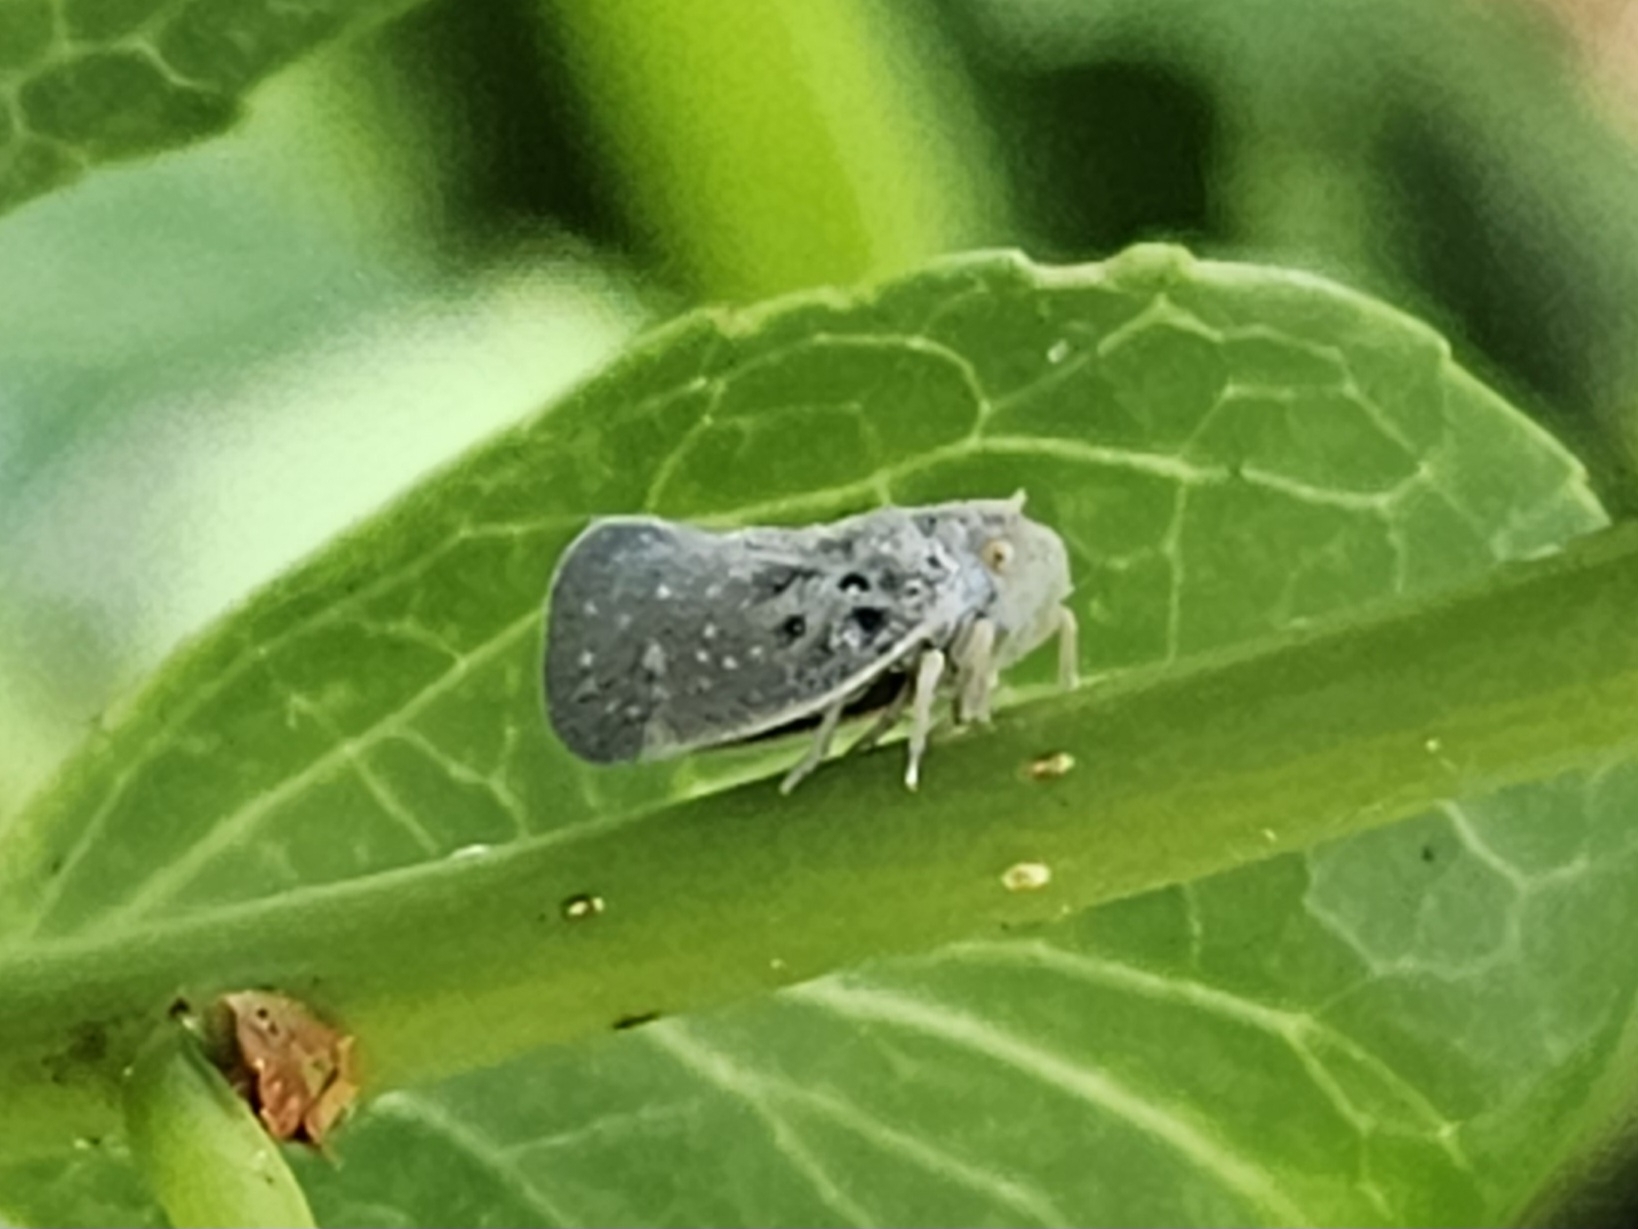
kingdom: Animalia
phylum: Arthropoda
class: Insecta
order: Hemiptera
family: Flatidae
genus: Metcalfa
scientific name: Metcalfa pruinosa
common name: Citrus flatid planthopper
